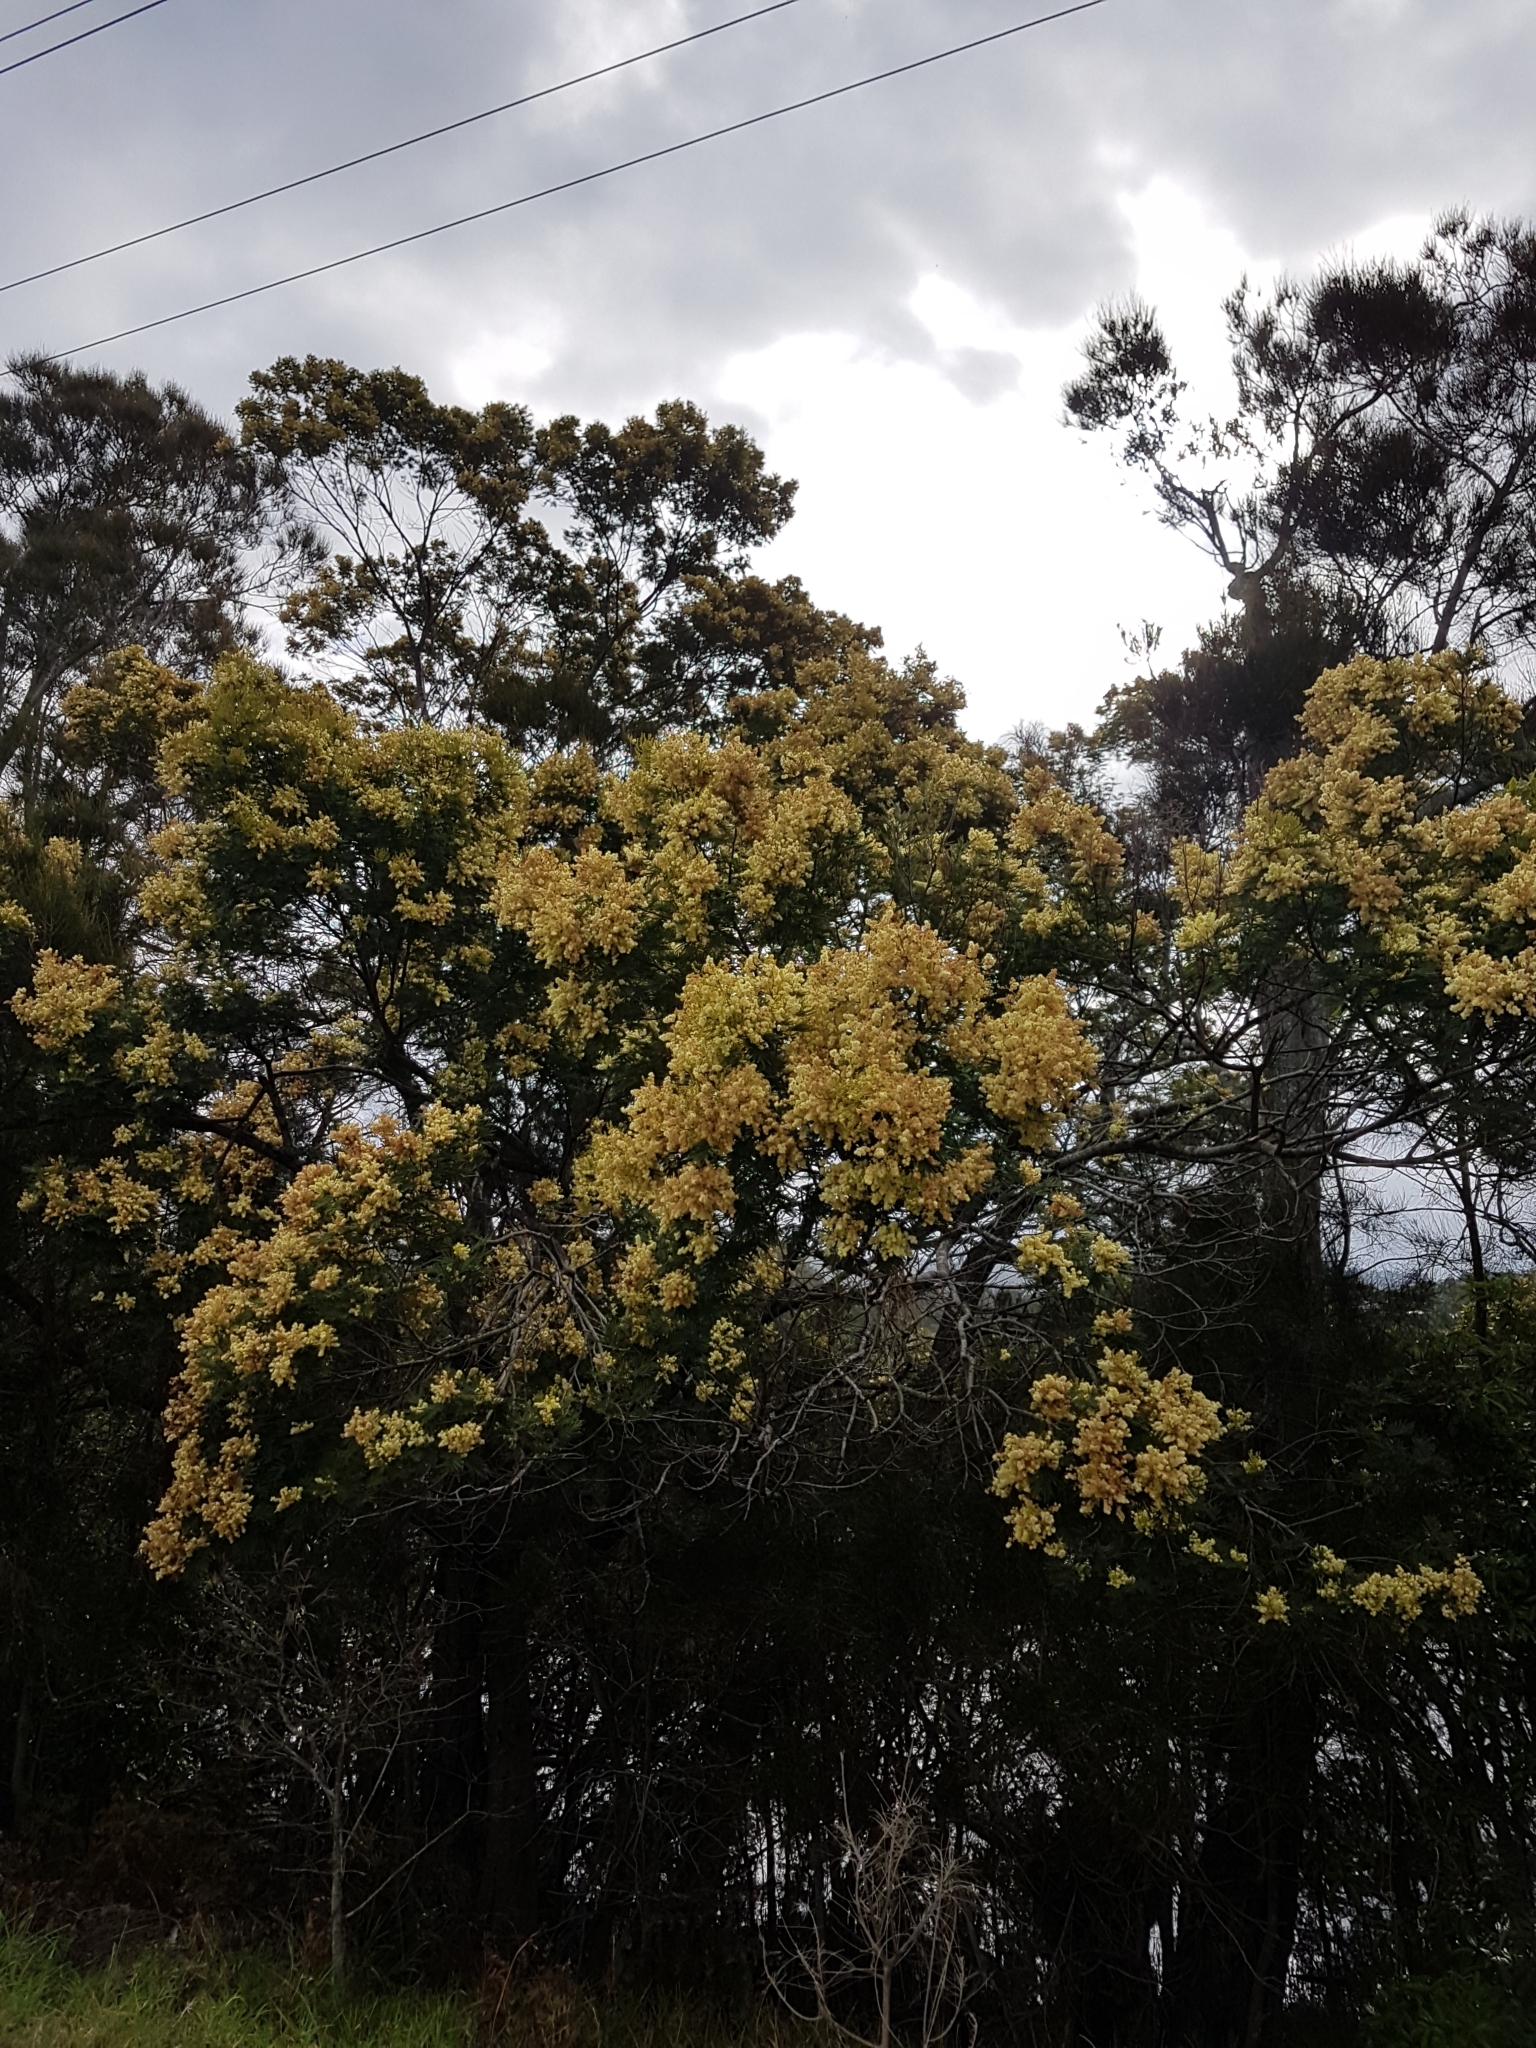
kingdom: Plantae
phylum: Tracheophyta
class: Magnoliopsida
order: Fabales
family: Fabaceae
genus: Acacia
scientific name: Acacia mearnsii
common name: Black wattle
